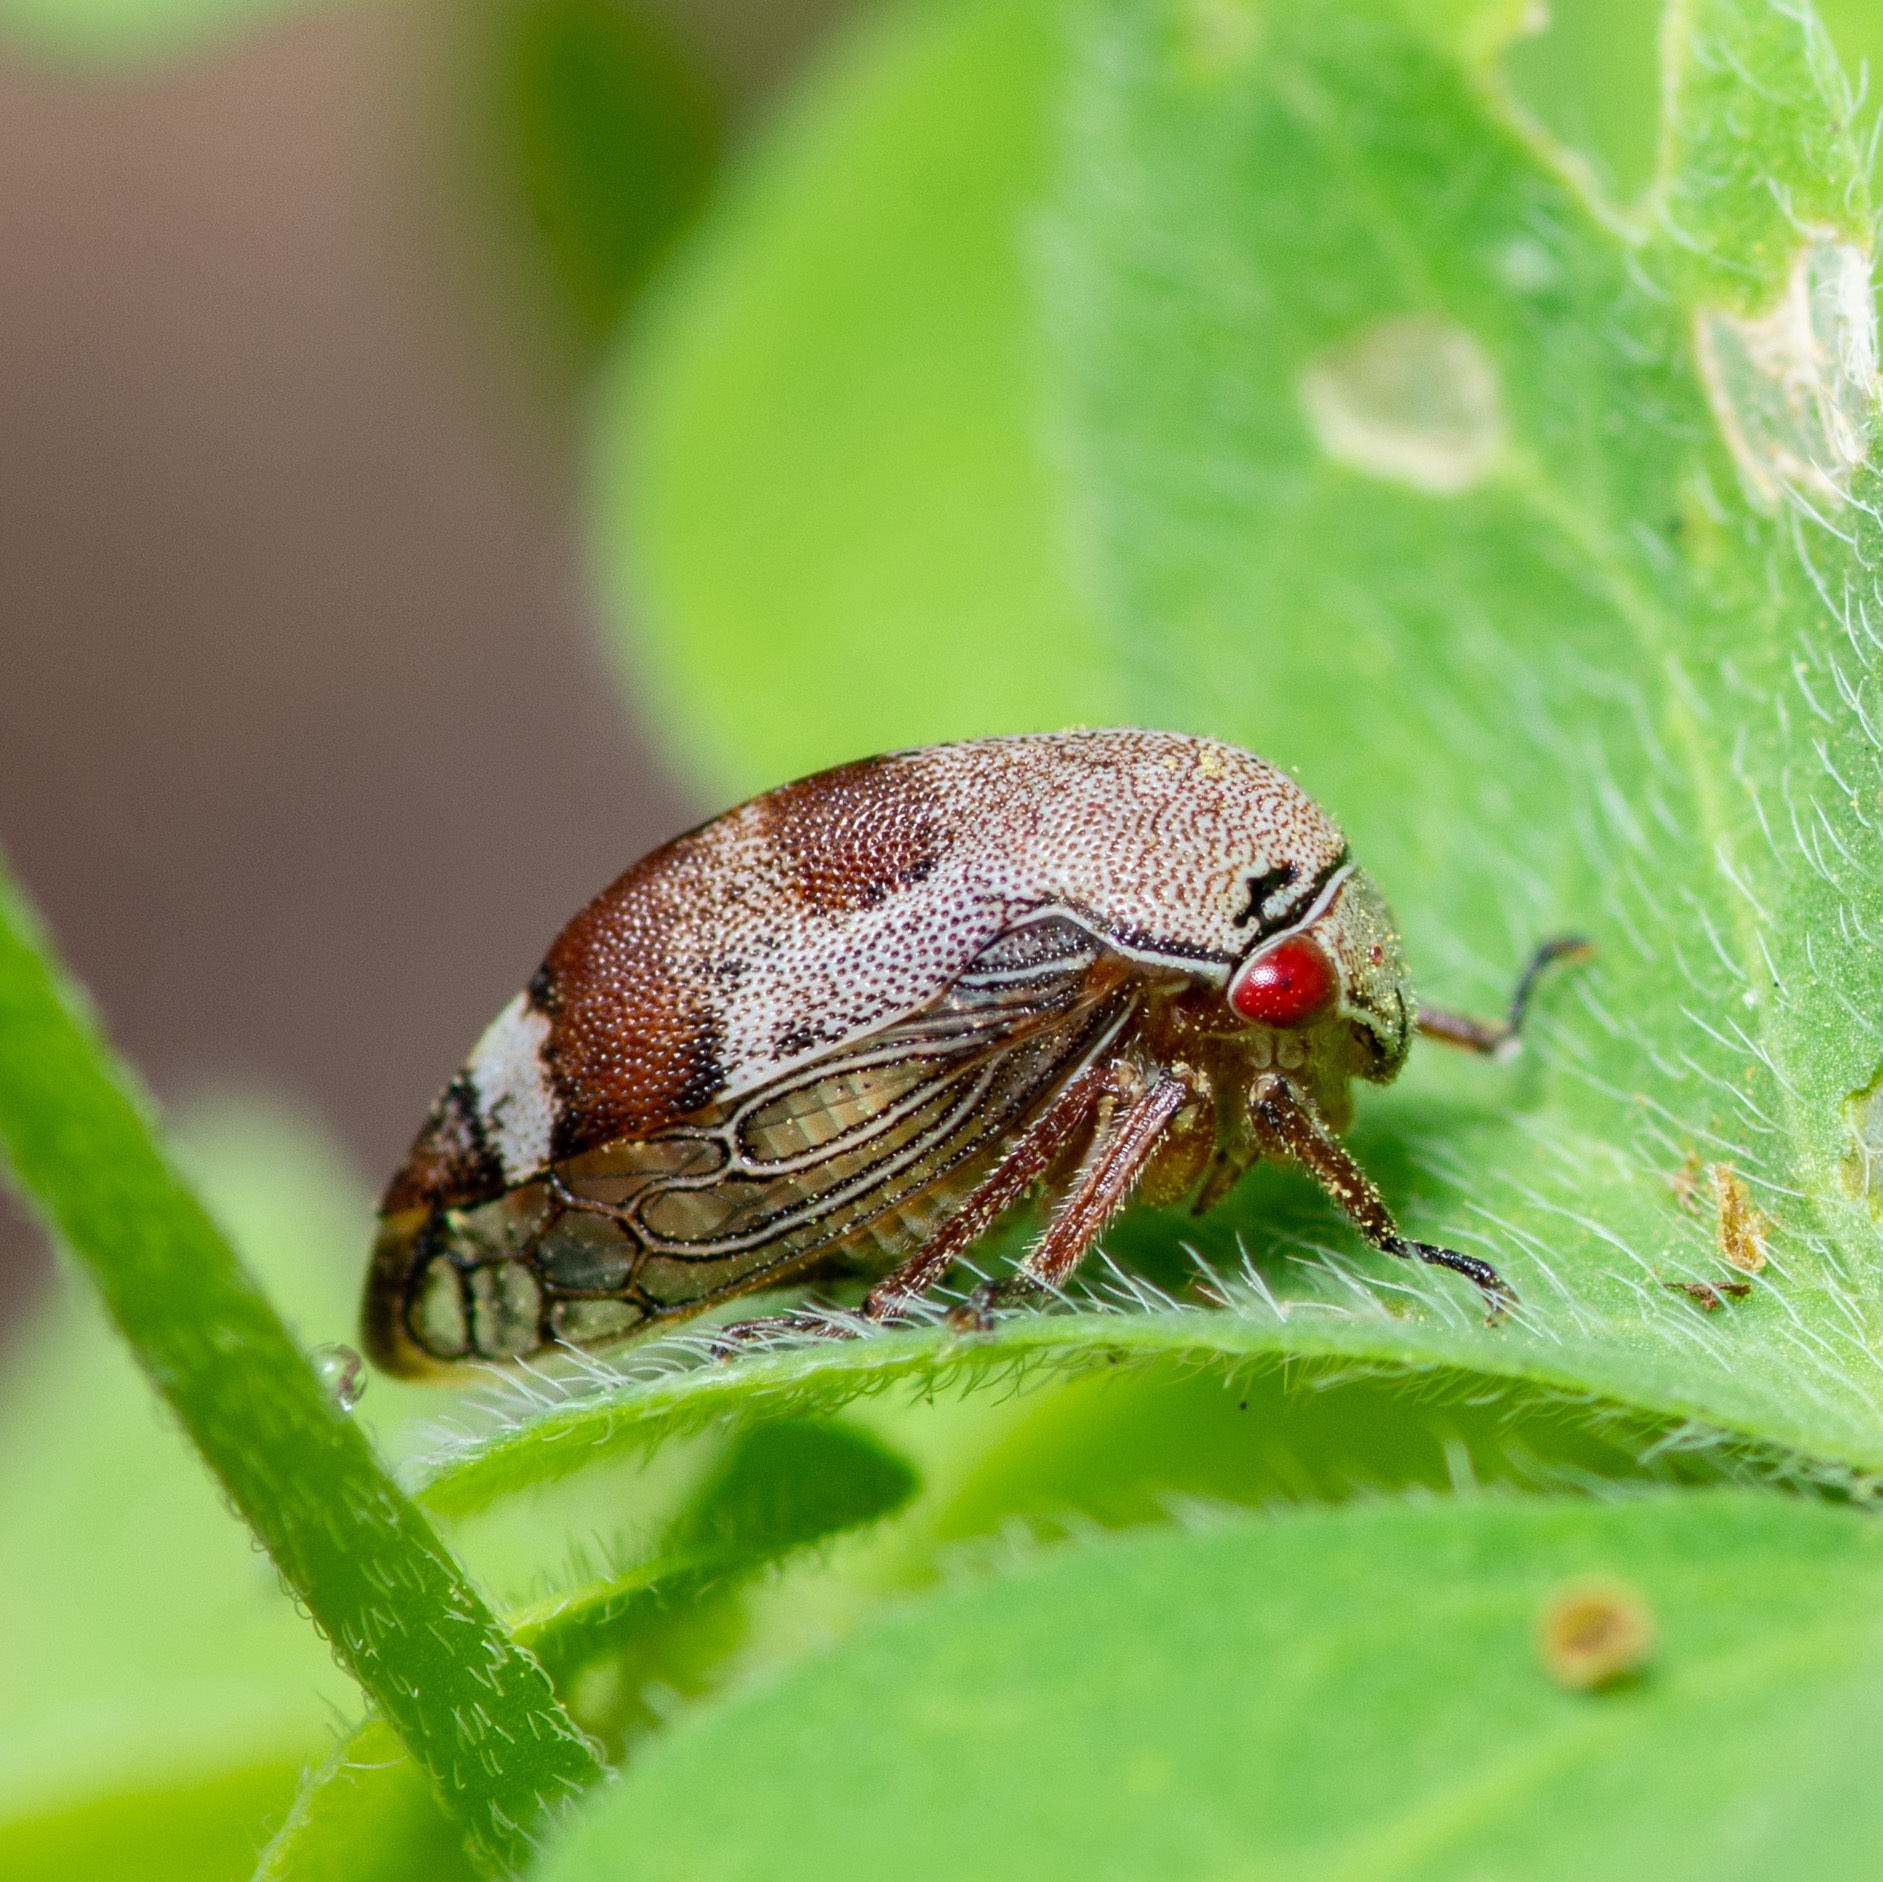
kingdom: Animalia
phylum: Arthropoda
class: Insecta
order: Hemiptera
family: Membracidae
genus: Xantholobus
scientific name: Xantholobus nigrocincta
